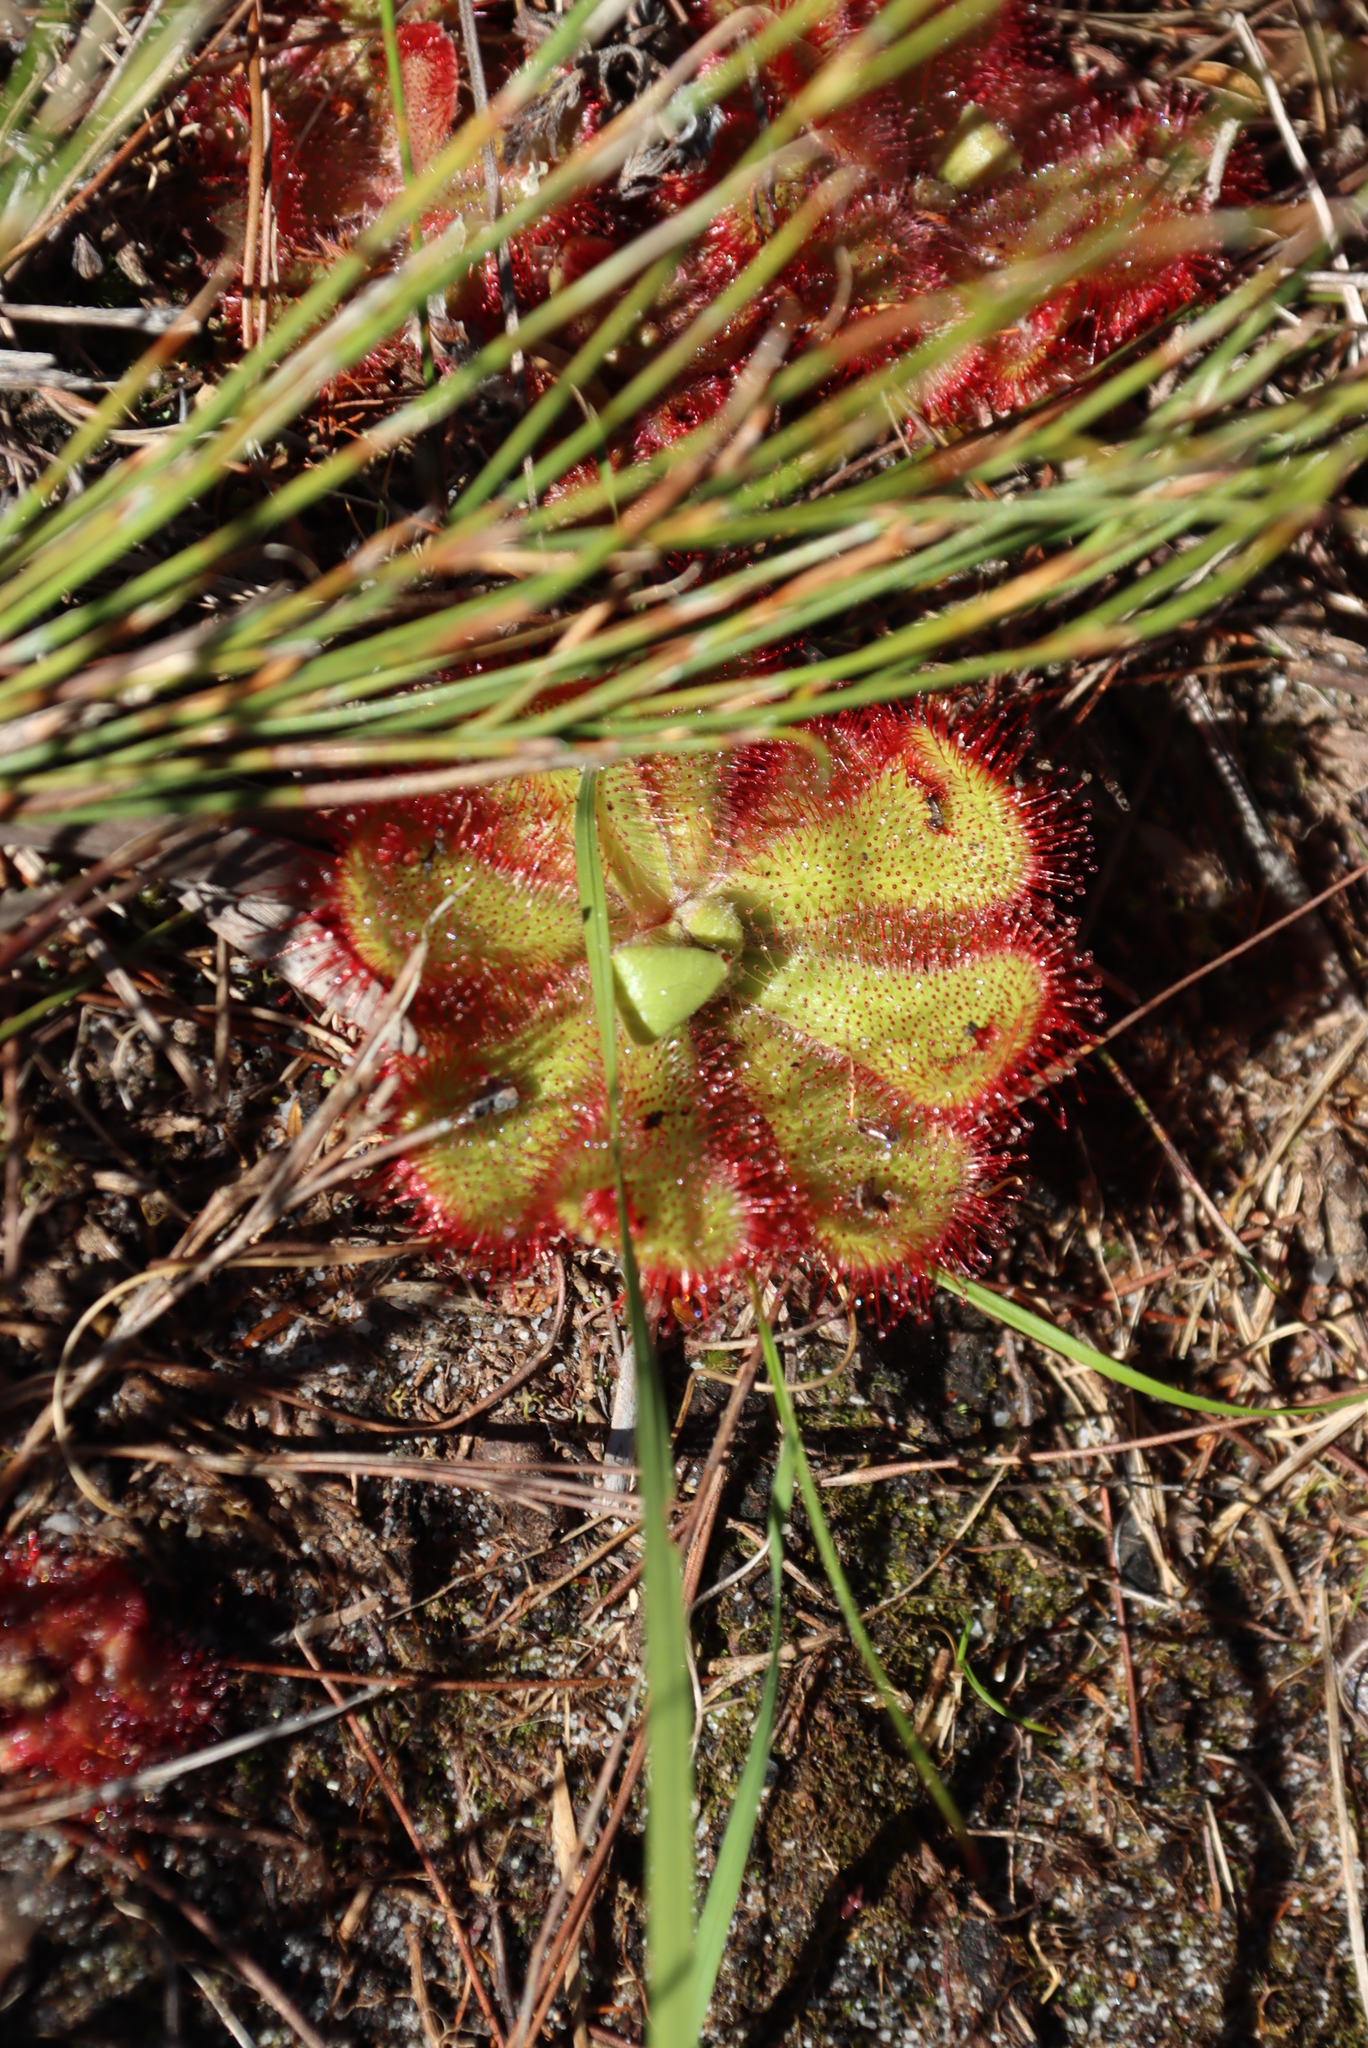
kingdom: Plantae
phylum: Tracheophyta
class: Magnoliopsida
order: Caryophyllales
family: Droseraceae
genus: Drosera
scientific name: Drosera cuneifolia
